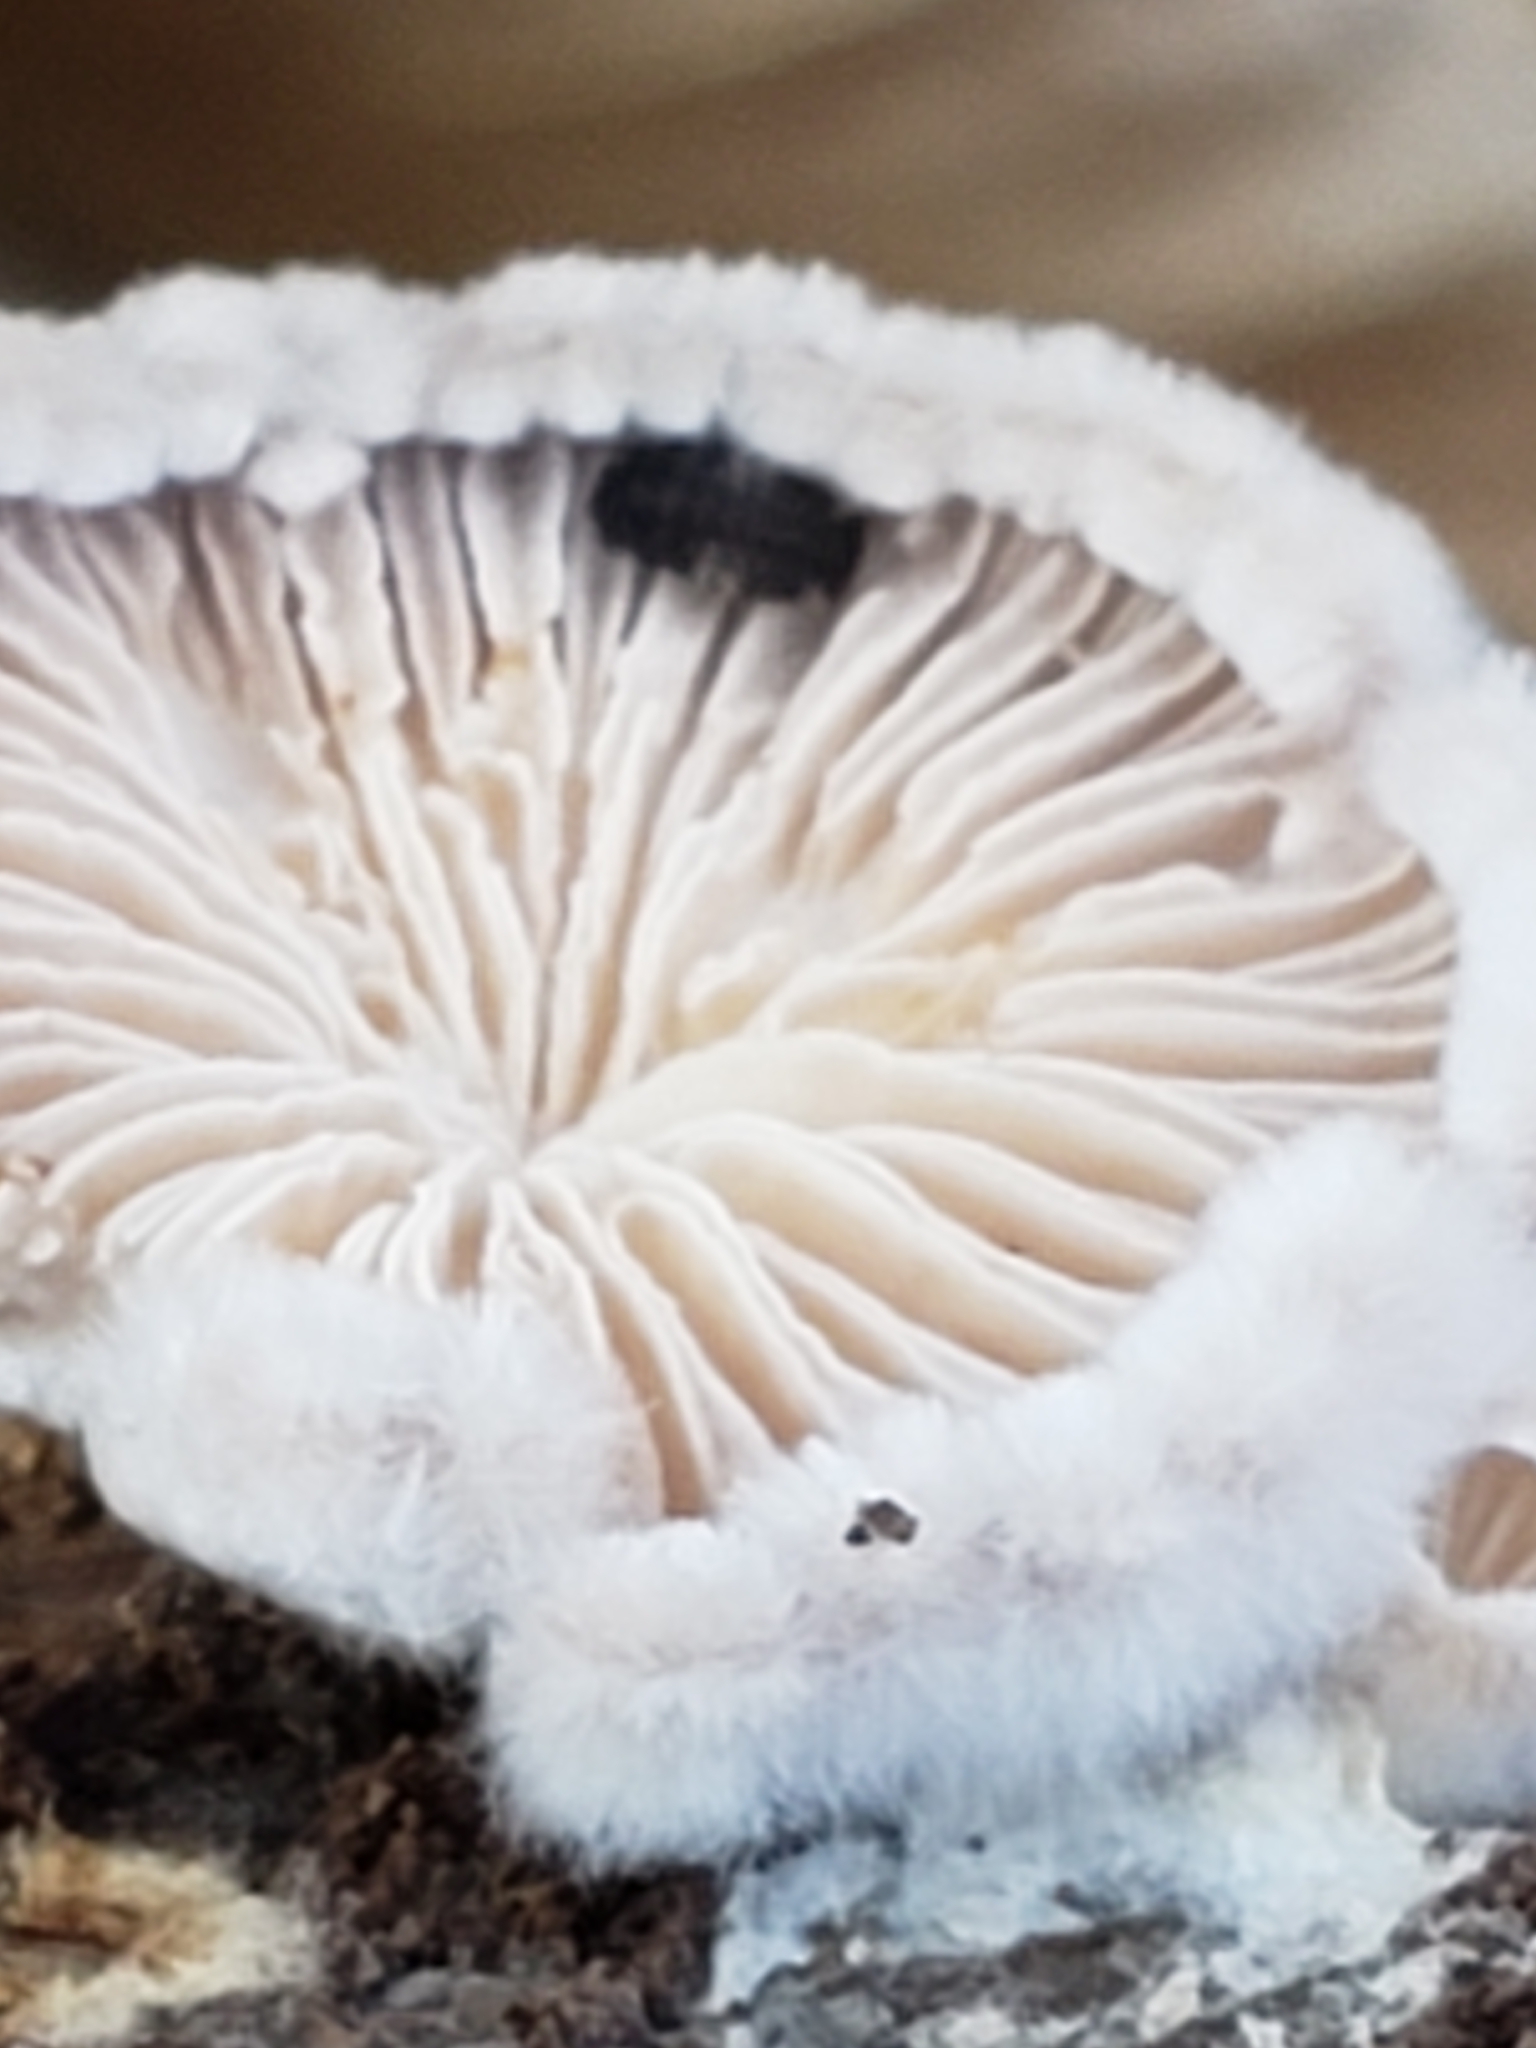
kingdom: Fungi
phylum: Basidiomycota
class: Agaricomycetes
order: Agaricales
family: Schizophyllaceae
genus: Schizophyllum
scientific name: Schizophyllum commune
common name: Common porecrust
